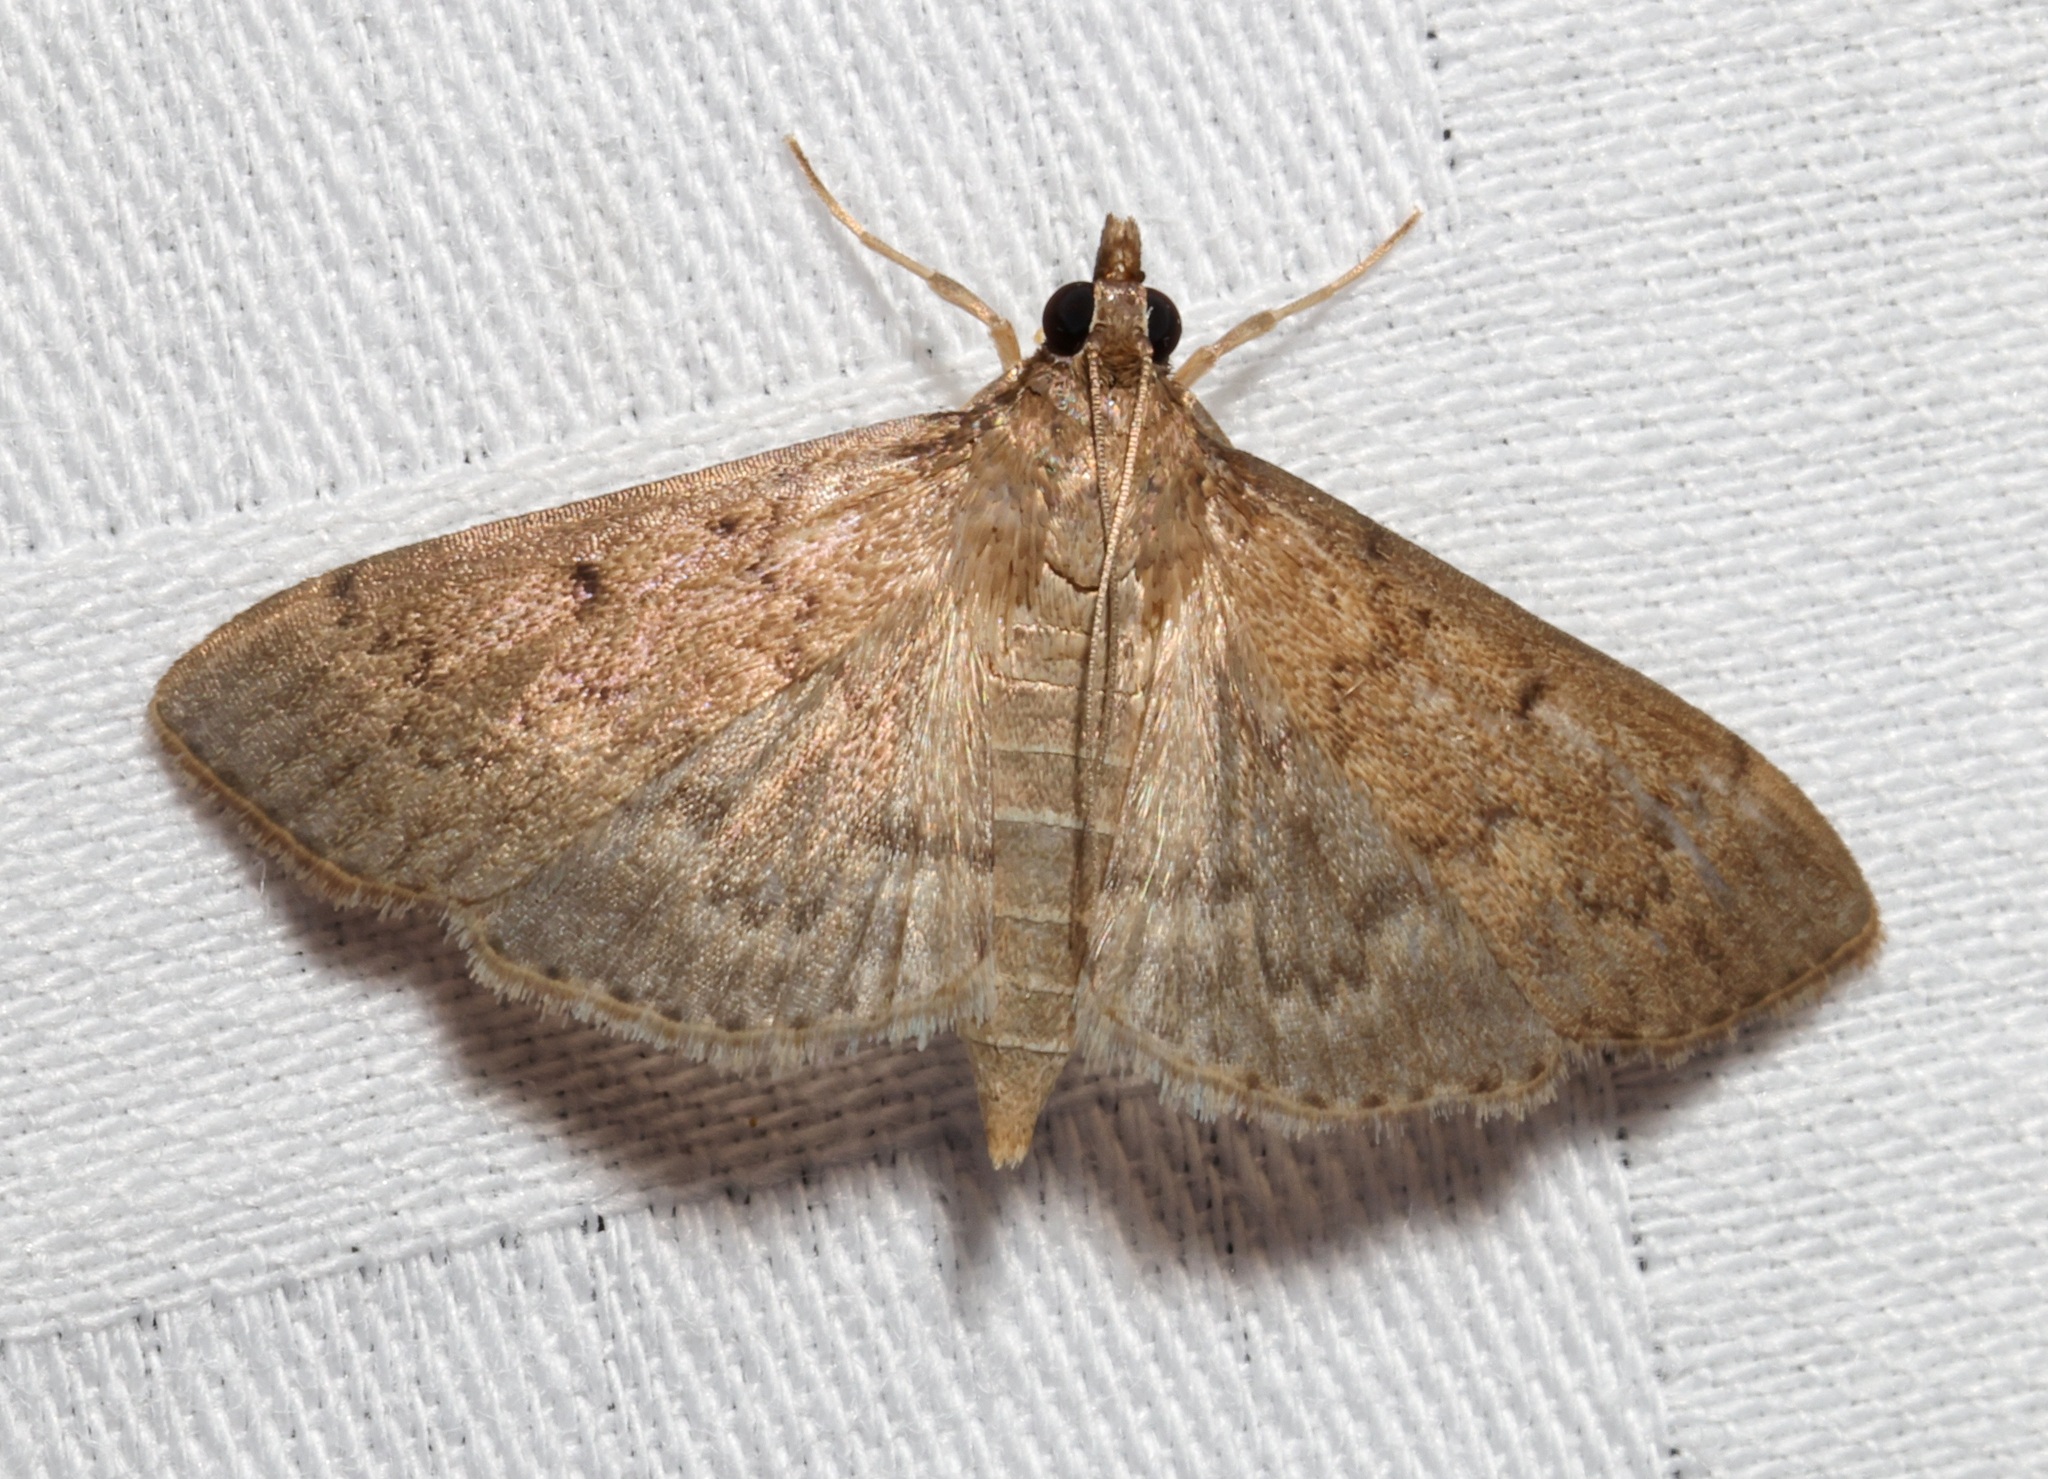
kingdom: Animalia
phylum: Arthropoda
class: Insecta
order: Lepidoptera
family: Crambidae
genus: Herpetogramma
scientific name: Herpetogramma licarsisalis
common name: Grass webworm
